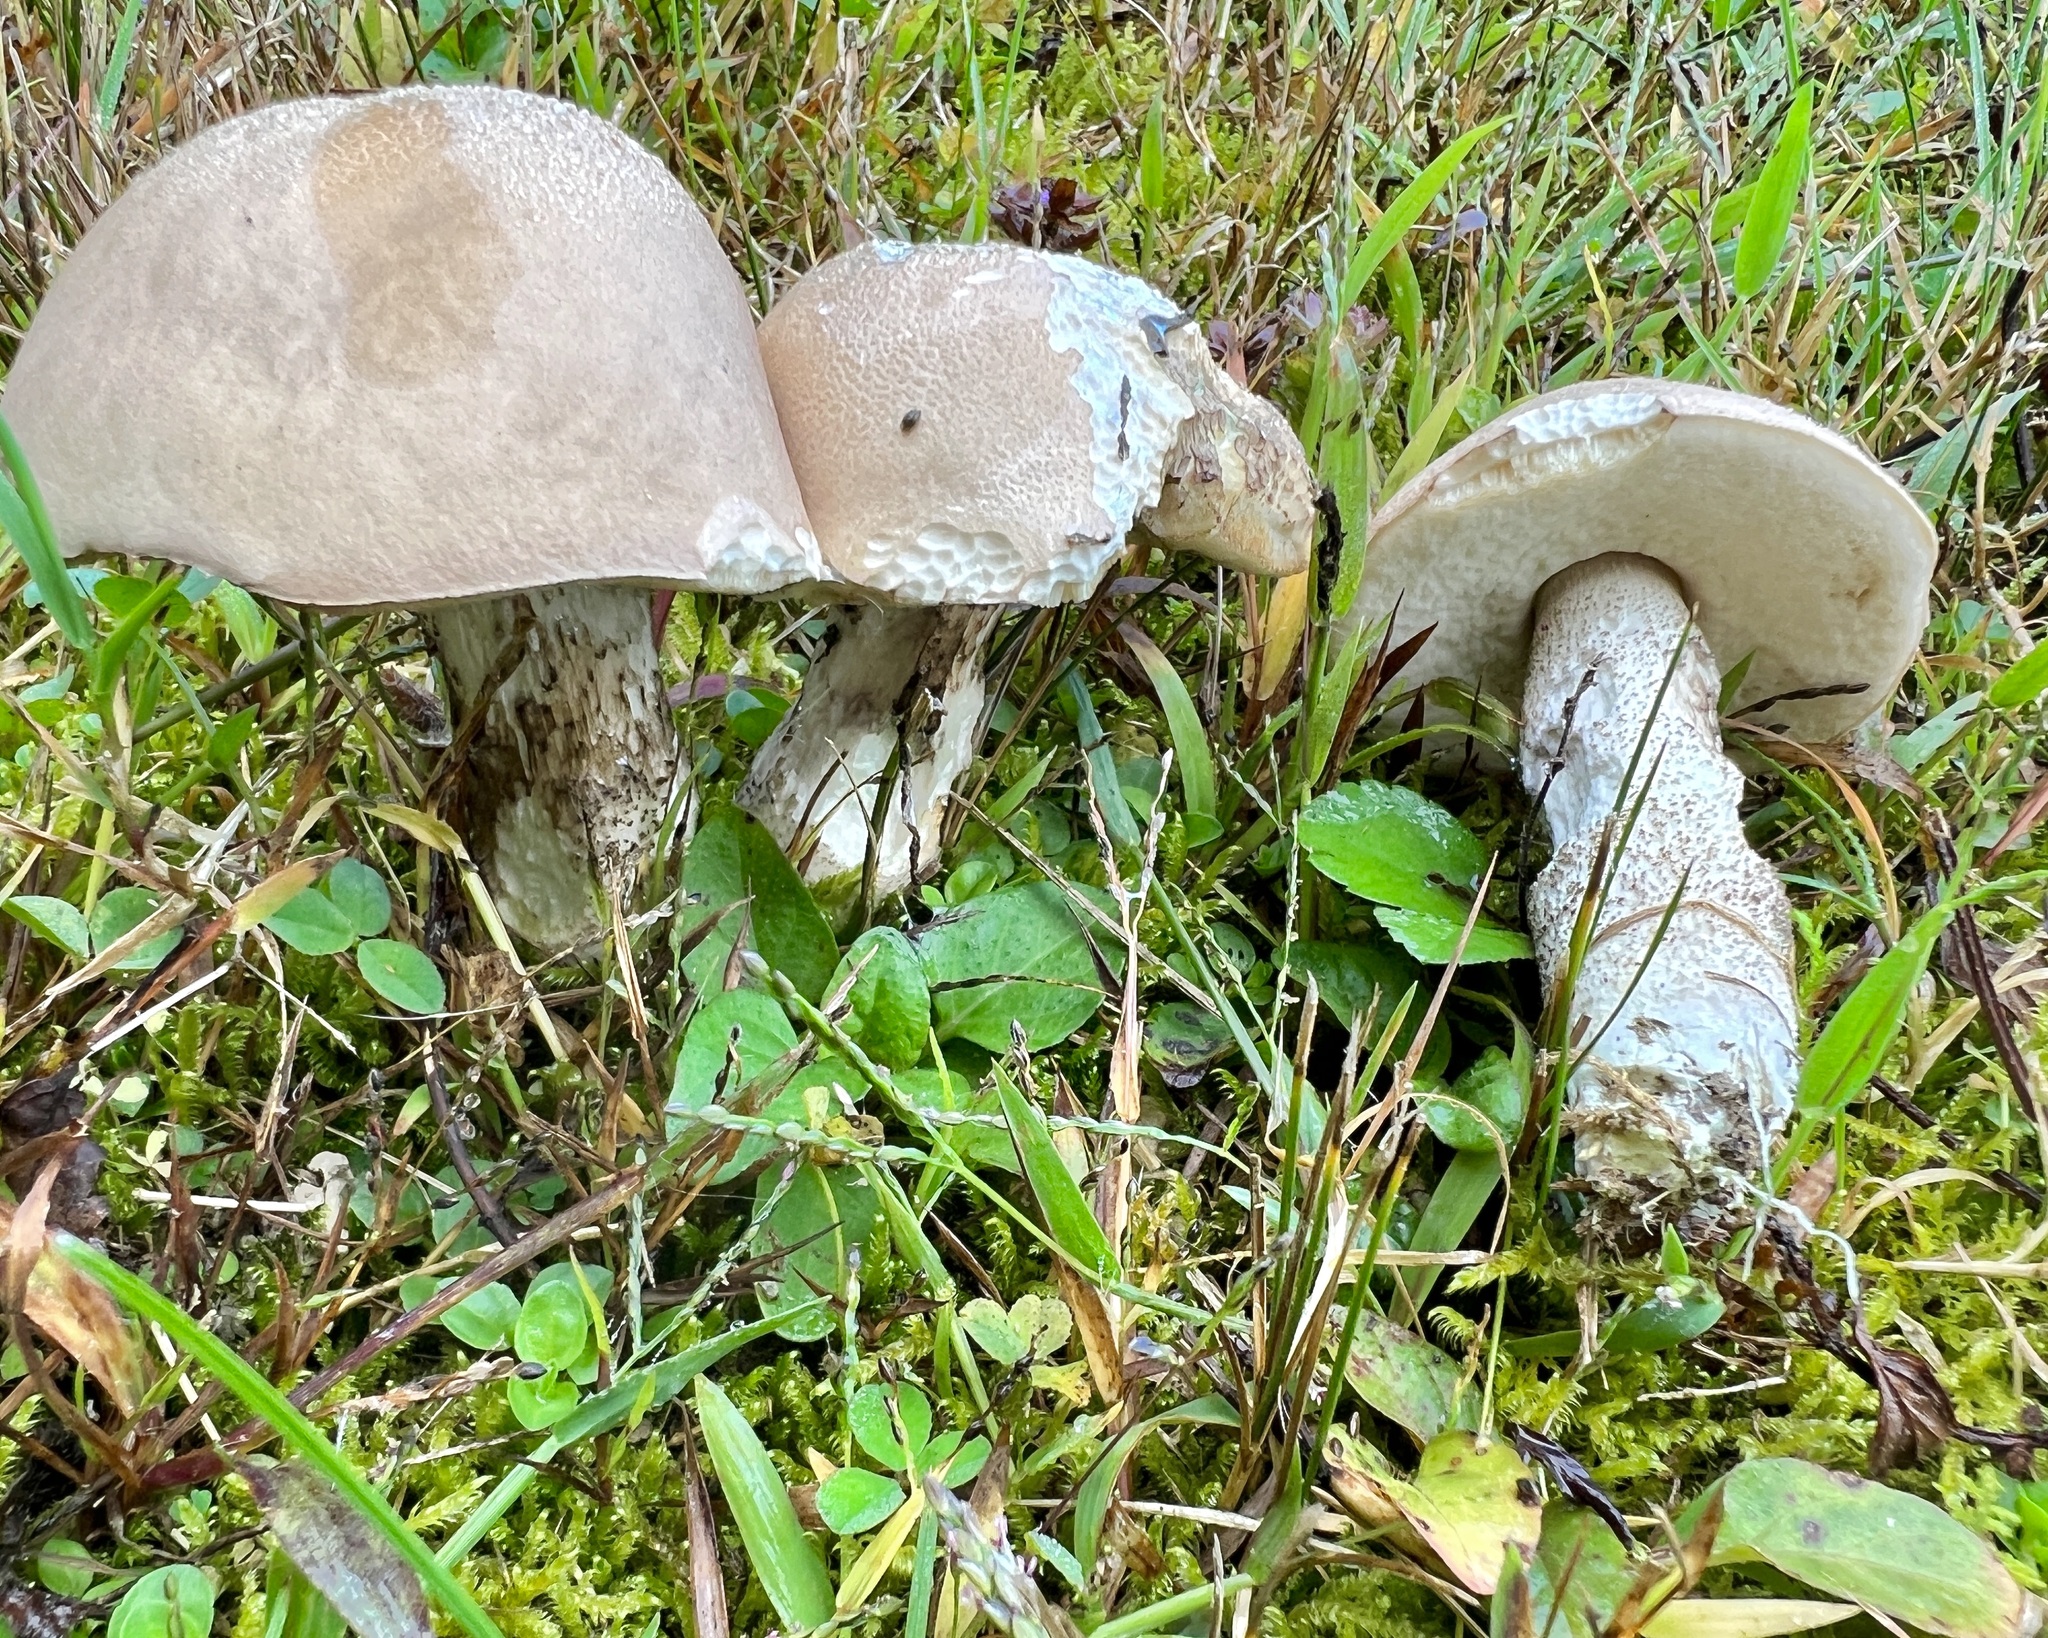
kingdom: Fungi
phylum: Basidiomycota
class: Agaricomycetes
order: Boletales
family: Boletaceae
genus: Leccinum
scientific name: Leccinum insigne
